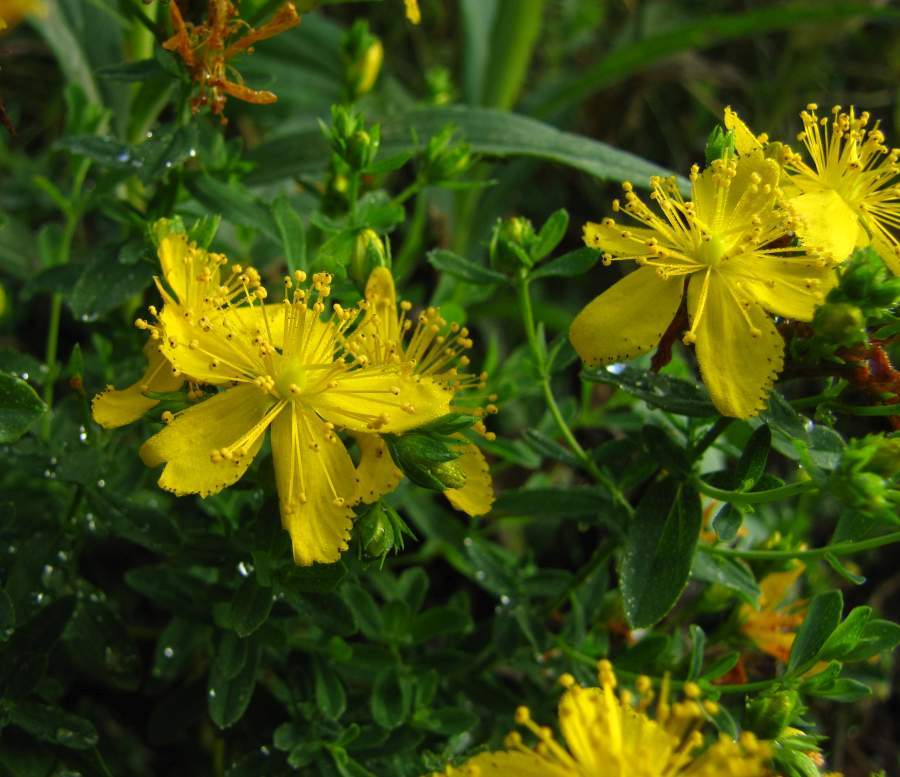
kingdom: Plantae
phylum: Tracheophyta
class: Magnoliopsida
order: Malpighiales
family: Hypericaceae
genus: Hypericum
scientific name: Hypericum perforatum
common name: Common st. johnswort
